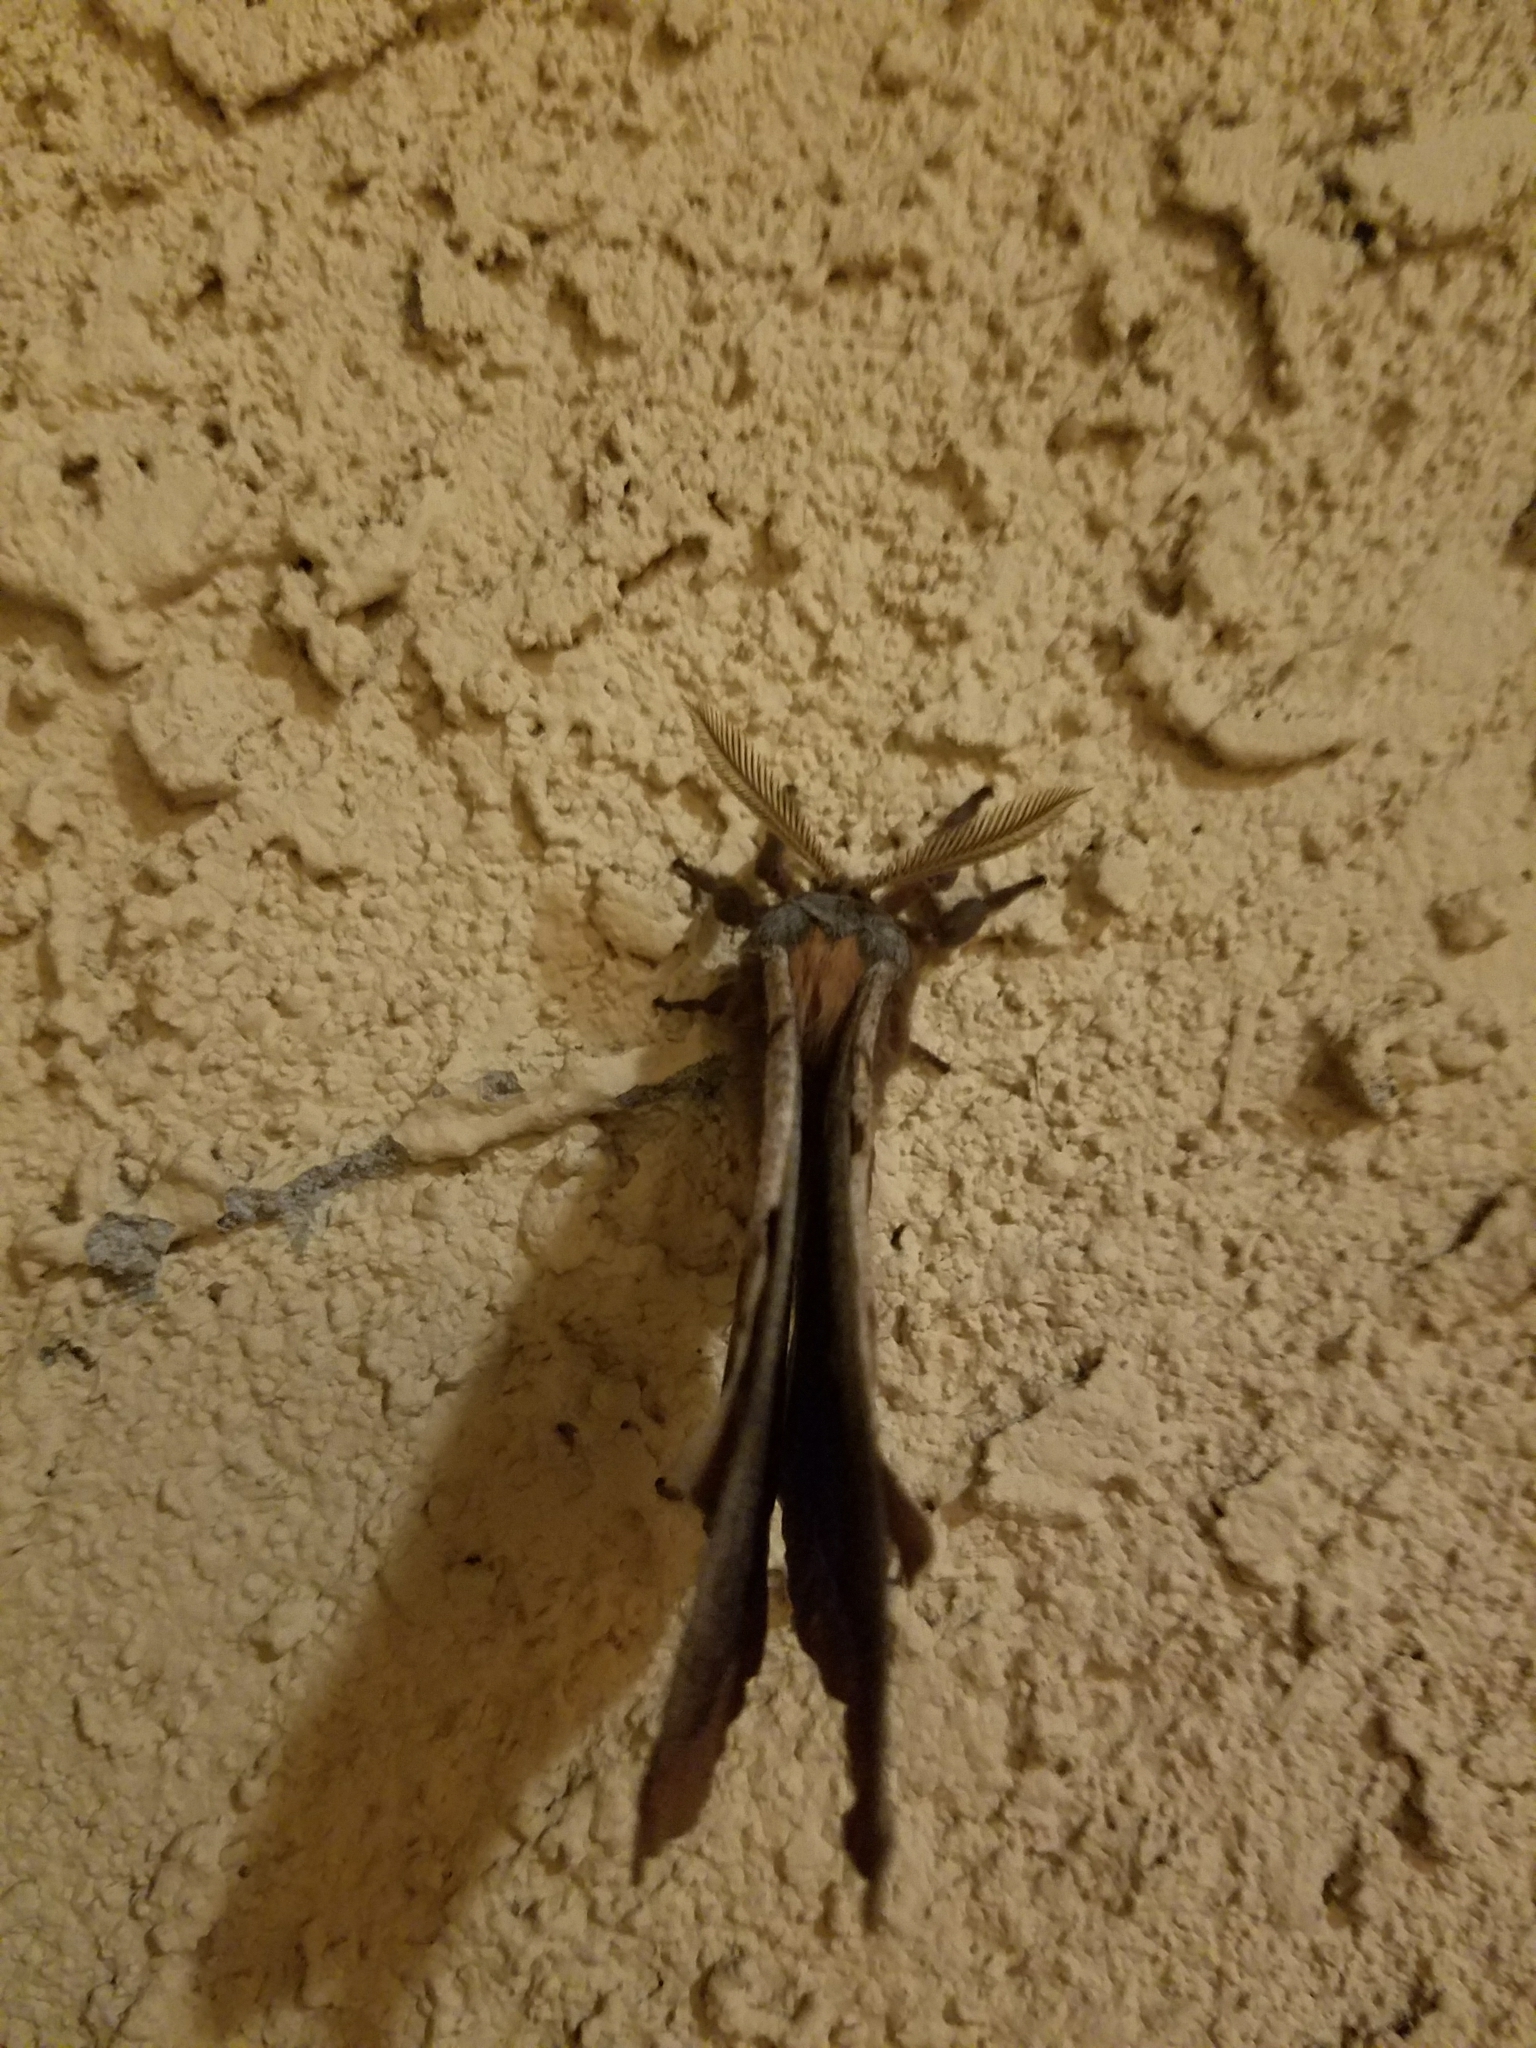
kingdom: Animalia
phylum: Arthropoda
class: Insecta
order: Lepidoptera
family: Saturniidae
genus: Antheraea
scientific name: Antheraea polyphemus
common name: Polyphemus moth
